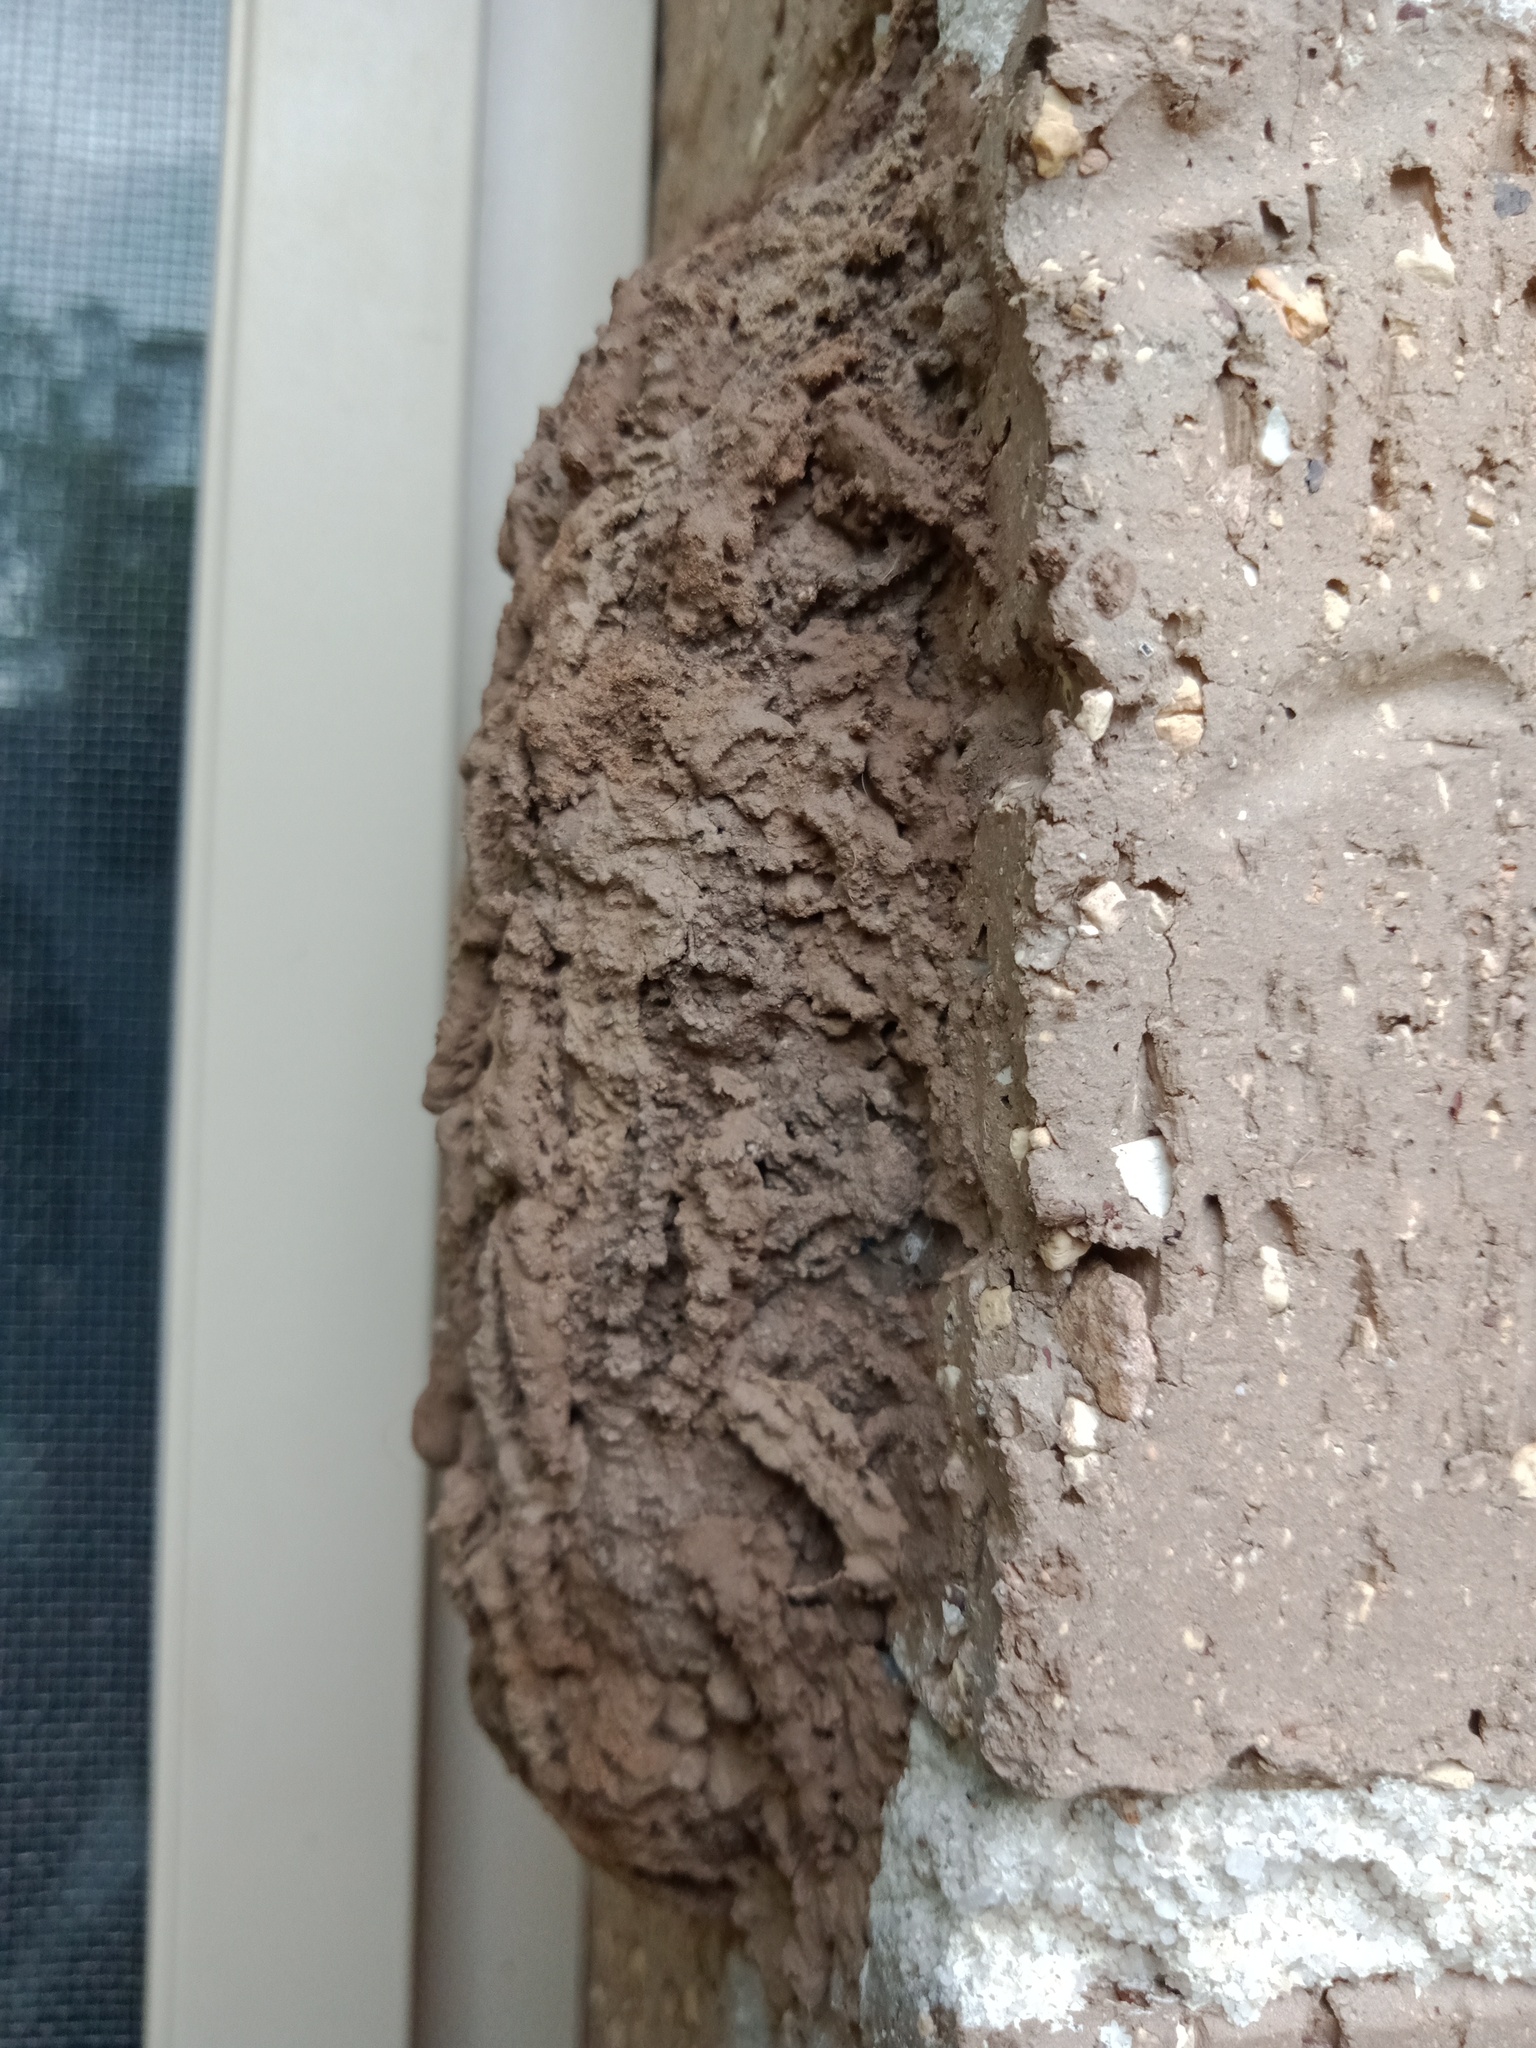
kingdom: Animalia
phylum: Arthropoda
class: Insecta
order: Hymenoptera
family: Sphecidae
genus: Sceliphron
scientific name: Sceliphron laetum
